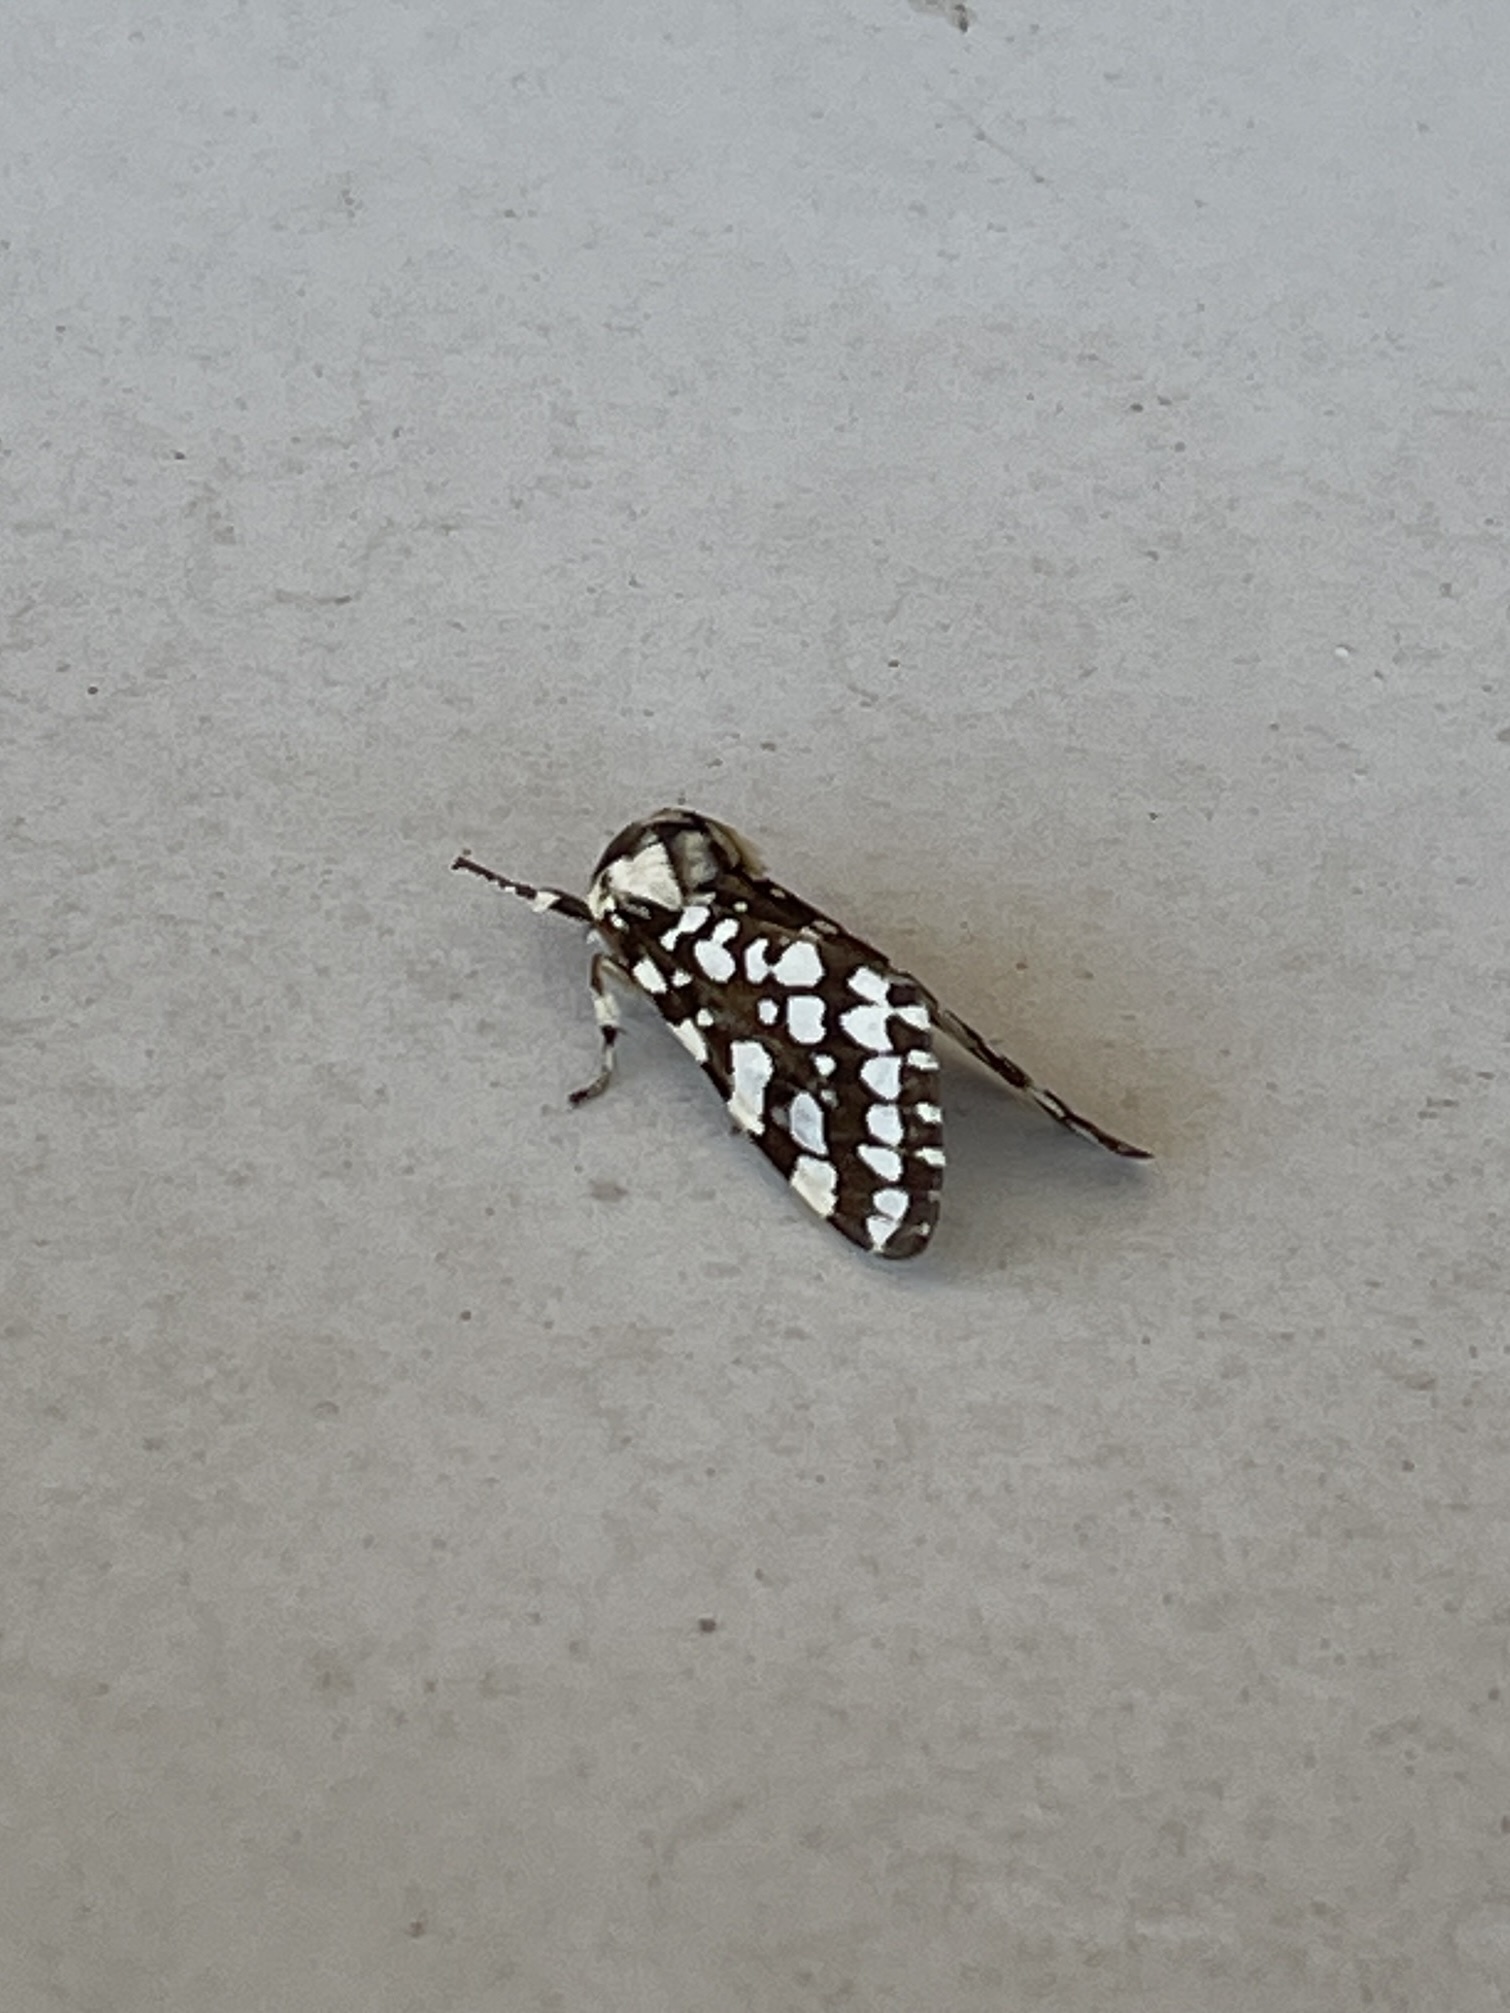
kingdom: Animalia
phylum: Arthropoda
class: Insecta
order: Lepidoptera
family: Erebidae
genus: Lophocampa
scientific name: Lophocampa ingens
